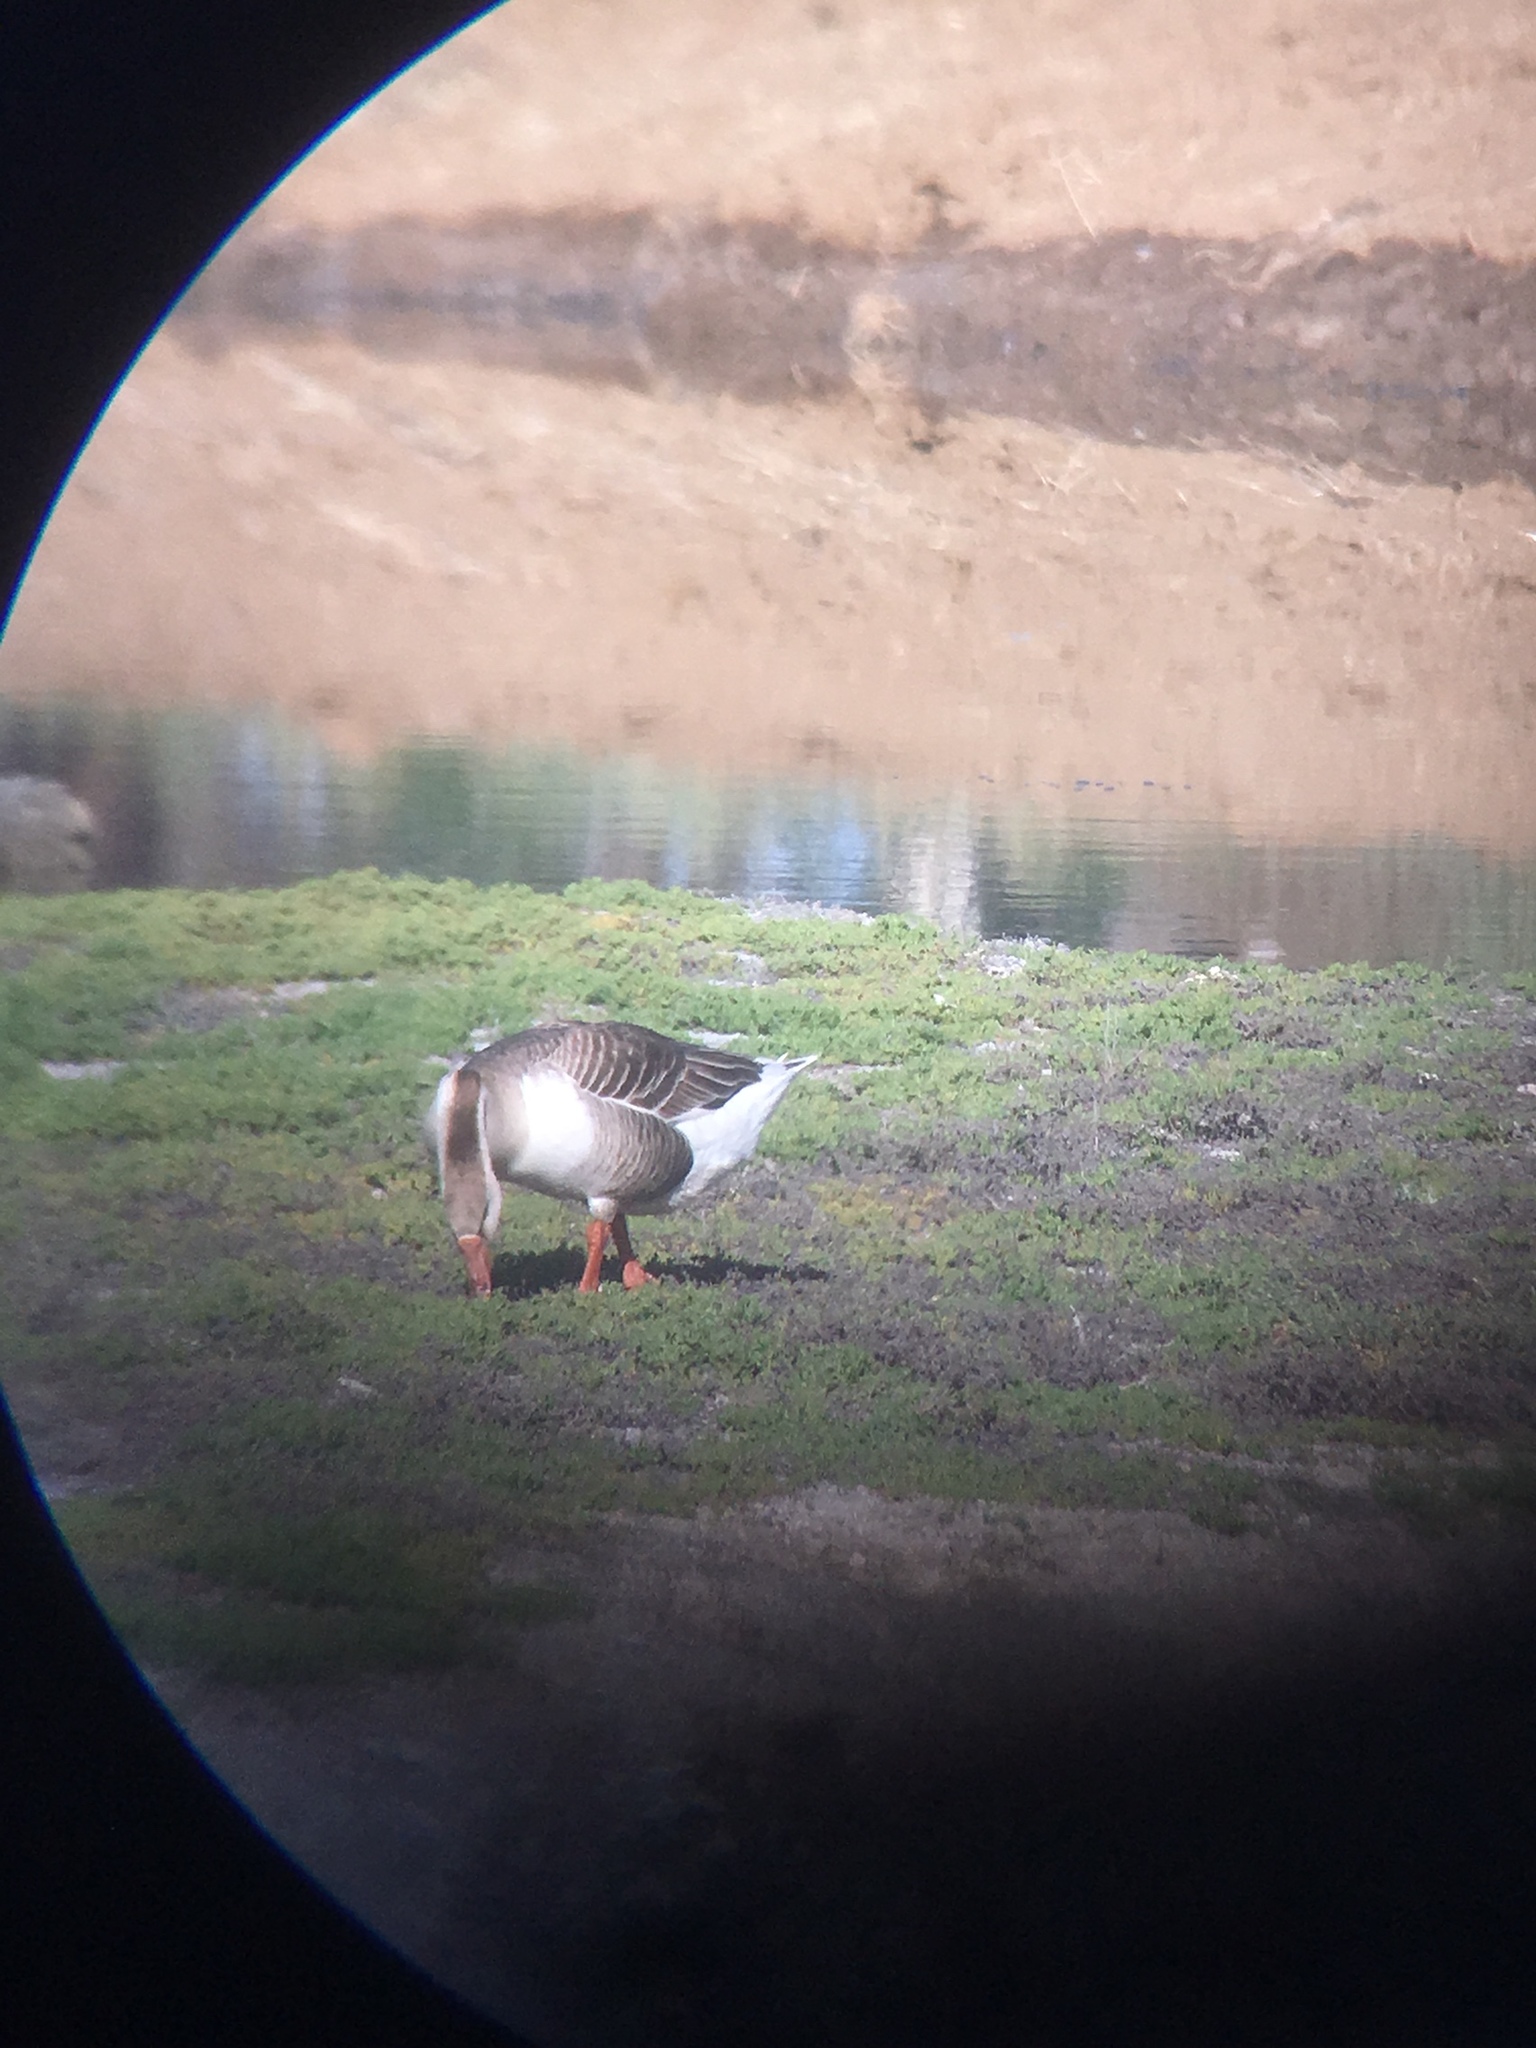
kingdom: Animalia
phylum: Chordata
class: Aves
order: Anseriformes
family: Anatidae
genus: Anser
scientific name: Anser
